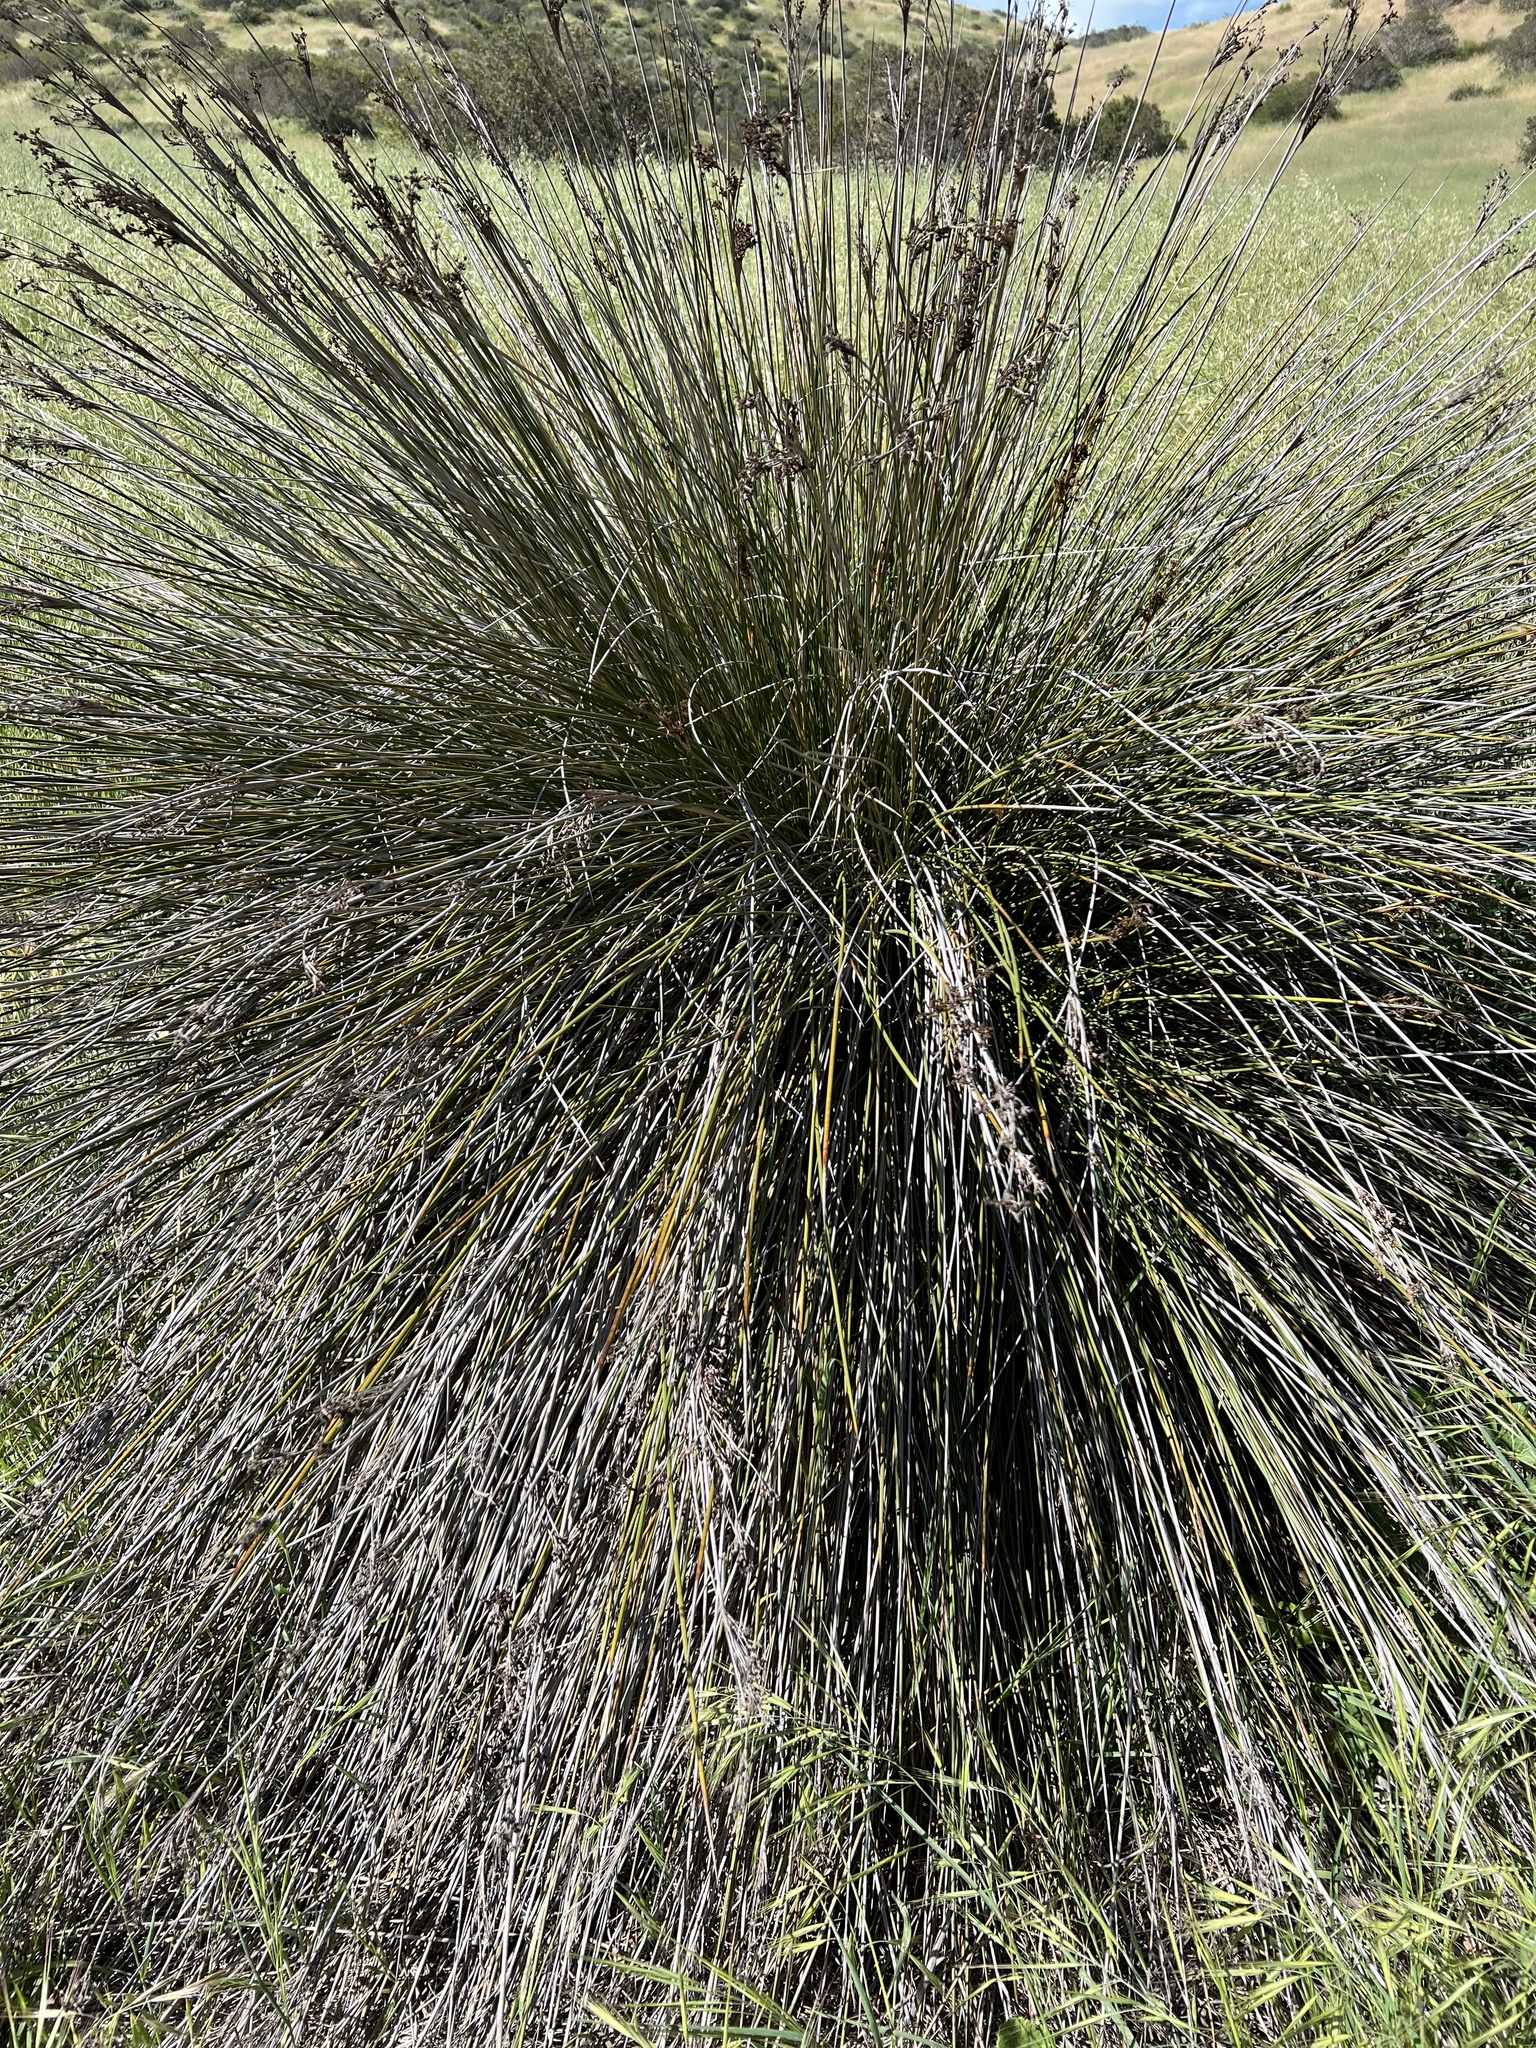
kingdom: Plantae
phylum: Tracheophyta
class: Liliopsida
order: Poales
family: Juncaceae
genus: Juncus
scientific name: Juncus acutus
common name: Sharp rush
